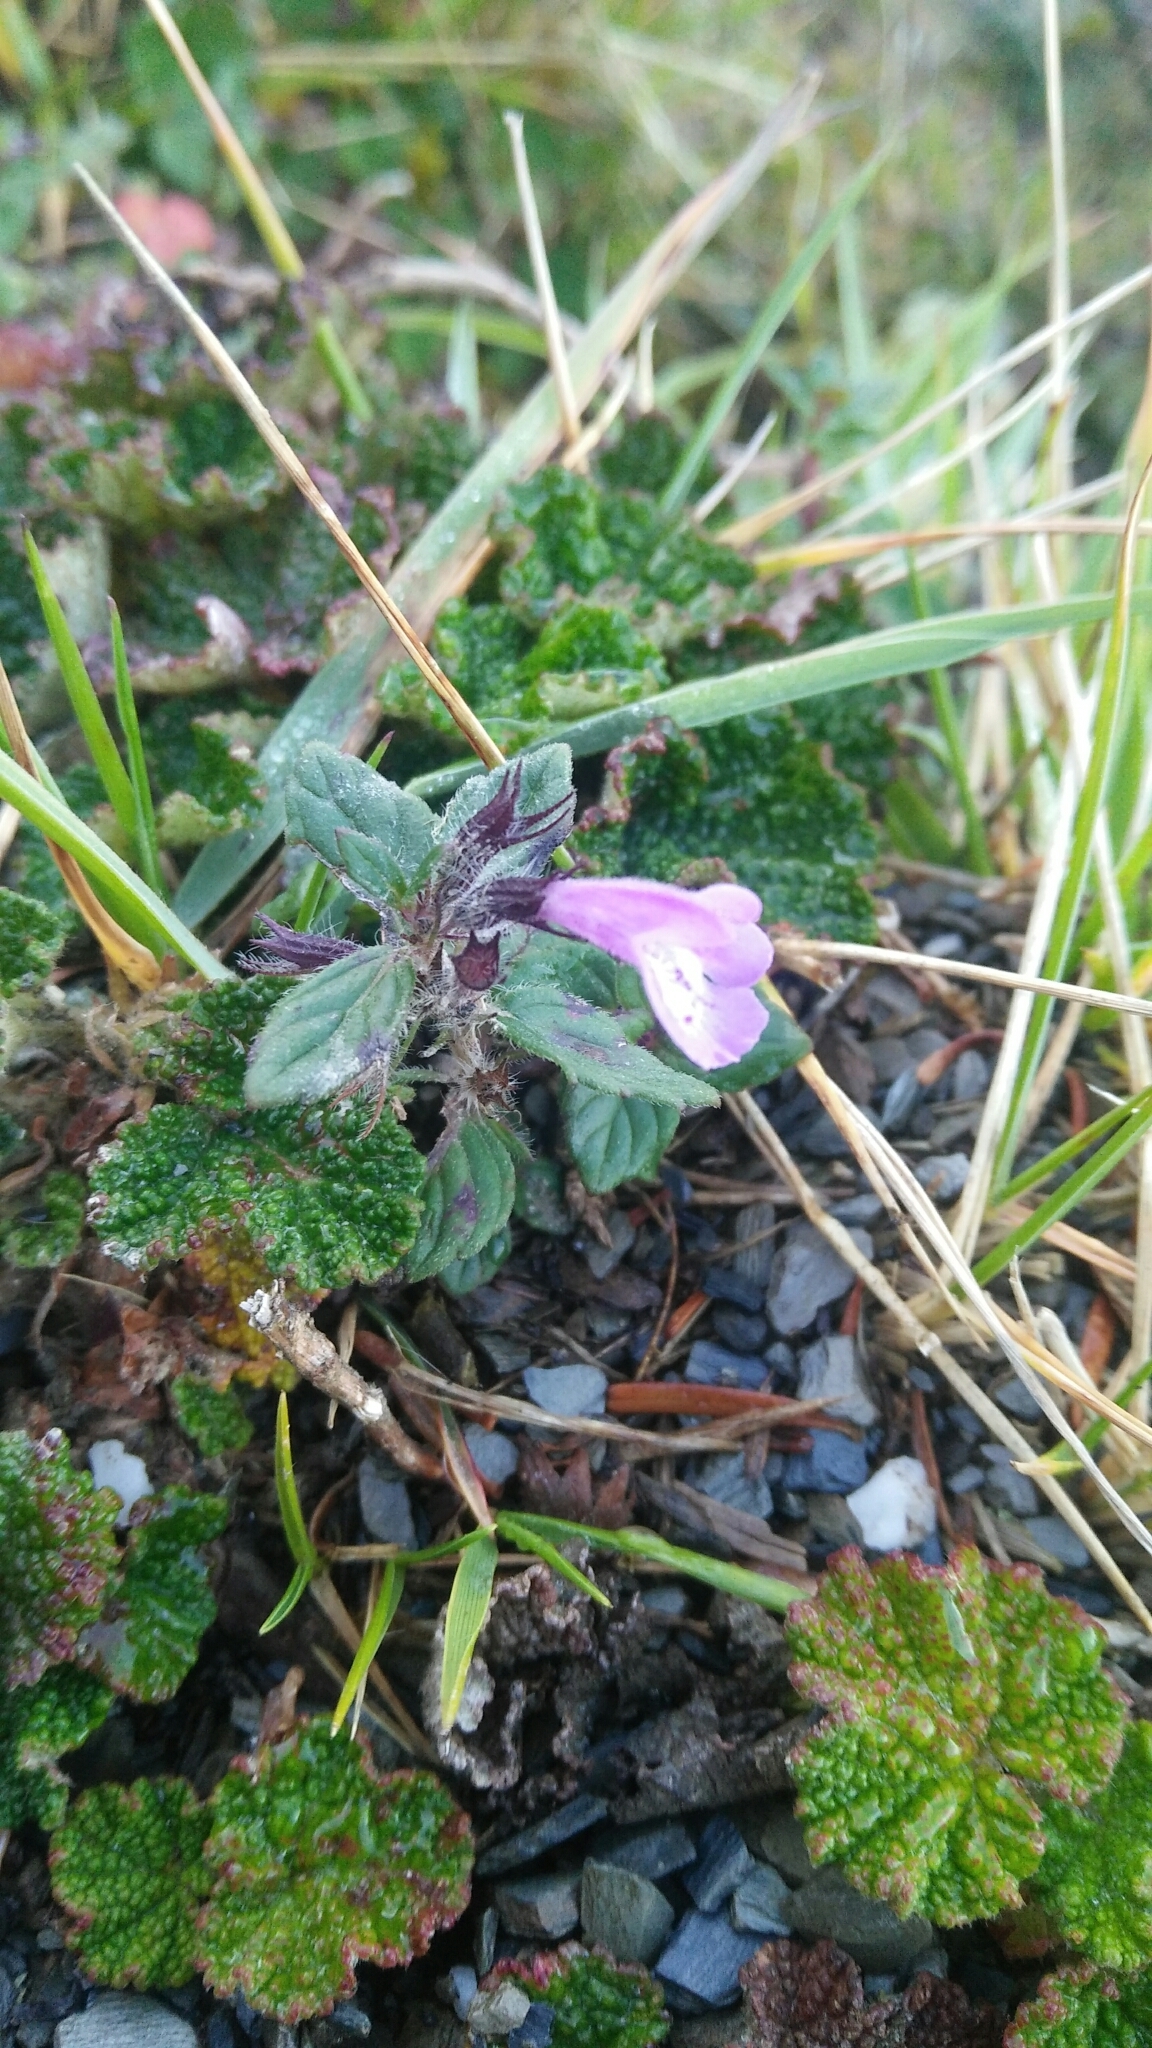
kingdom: Plantae
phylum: Tracheophyta
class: Magnoliopsida
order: Lamiales
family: Lamiaceae
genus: Clinopodium
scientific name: Clinopodium laxiflorum
